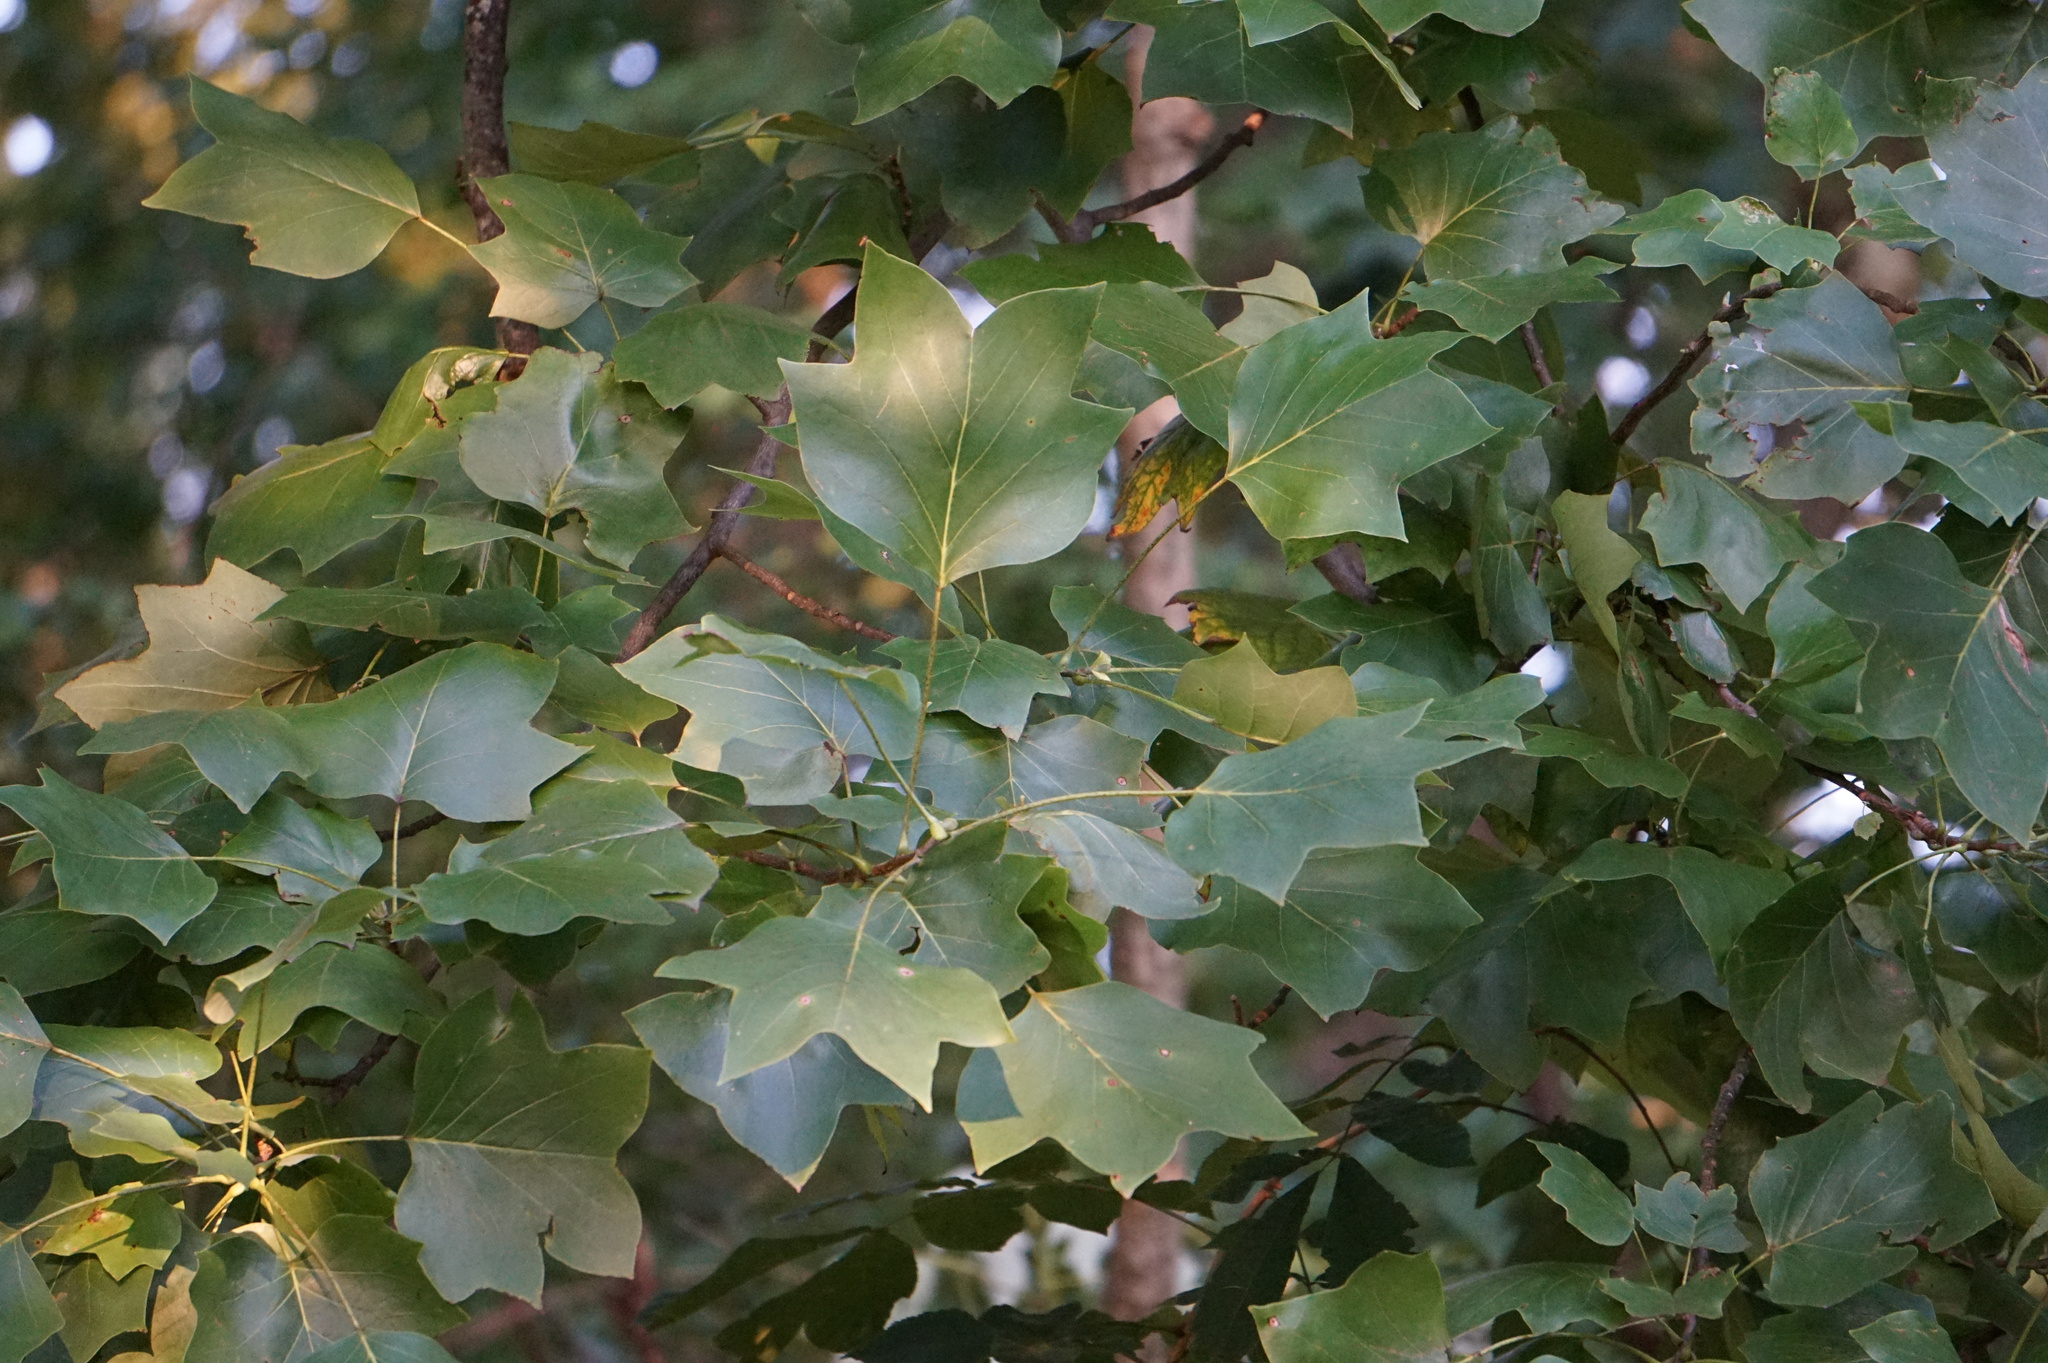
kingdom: Plantae
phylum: Tracheophyta
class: Magnoliopsida
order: Magnoliales
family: Magnoliaceae
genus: Liriodendron
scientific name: Liriodendron tulipifera
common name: Tulip tree
